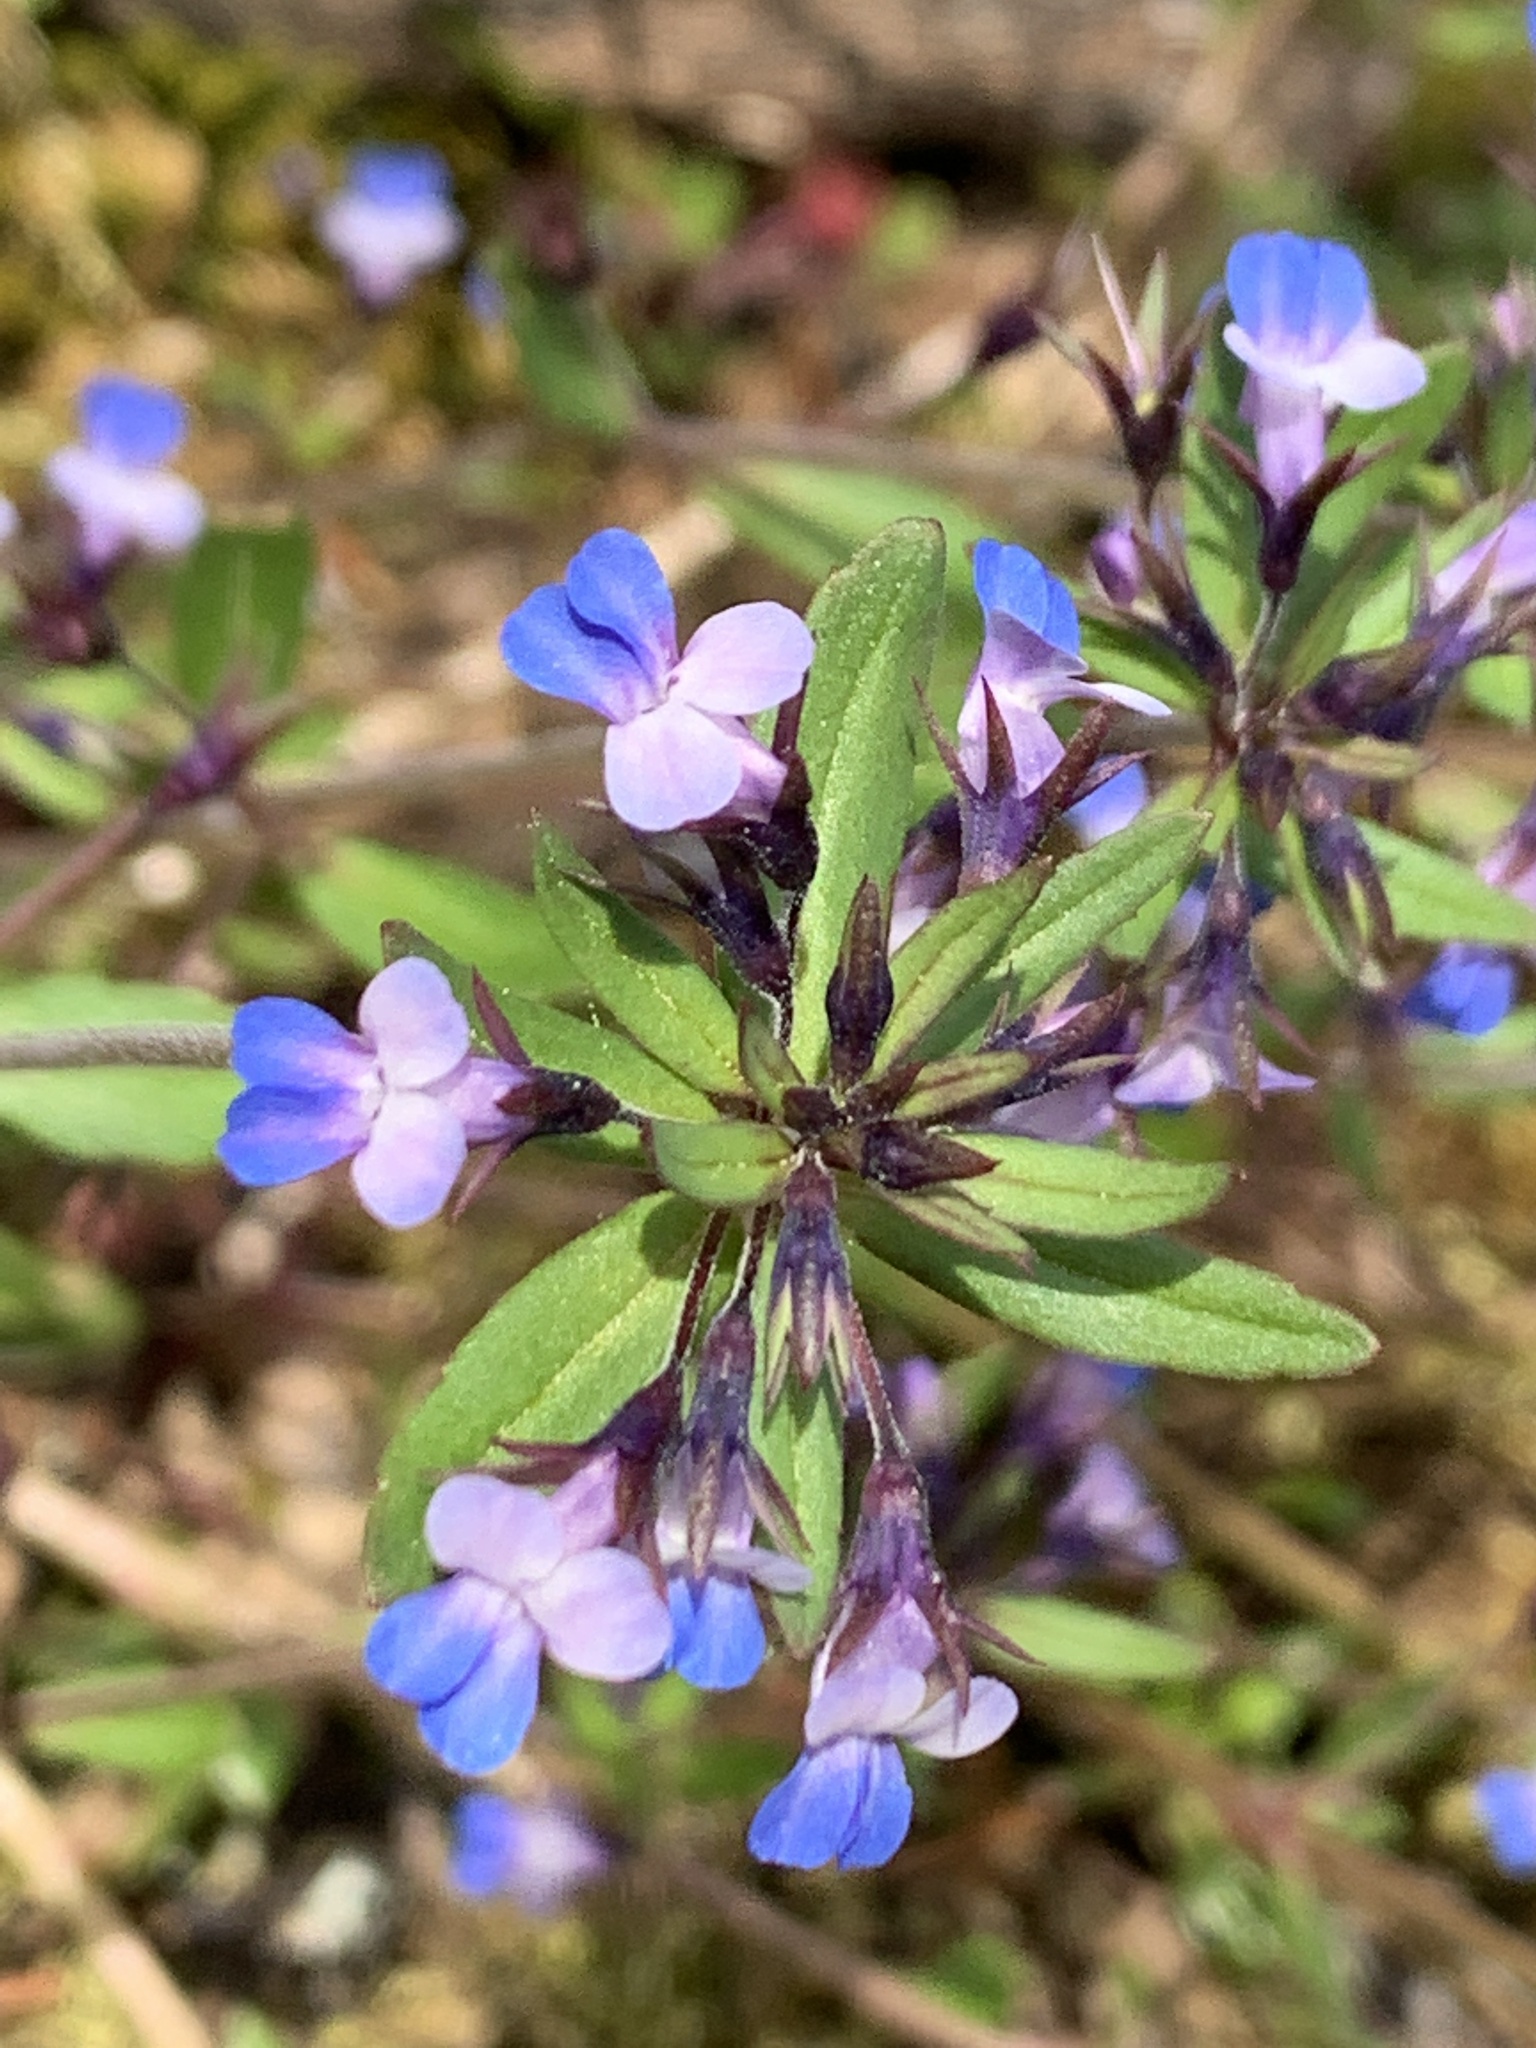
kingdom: Plantae
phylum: Tracheophyta
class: Magnoliopsida
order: Lamiales
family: Plantaginaceae
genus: Collinsia
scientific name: Collinsia parviflora
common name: Blue-lips
